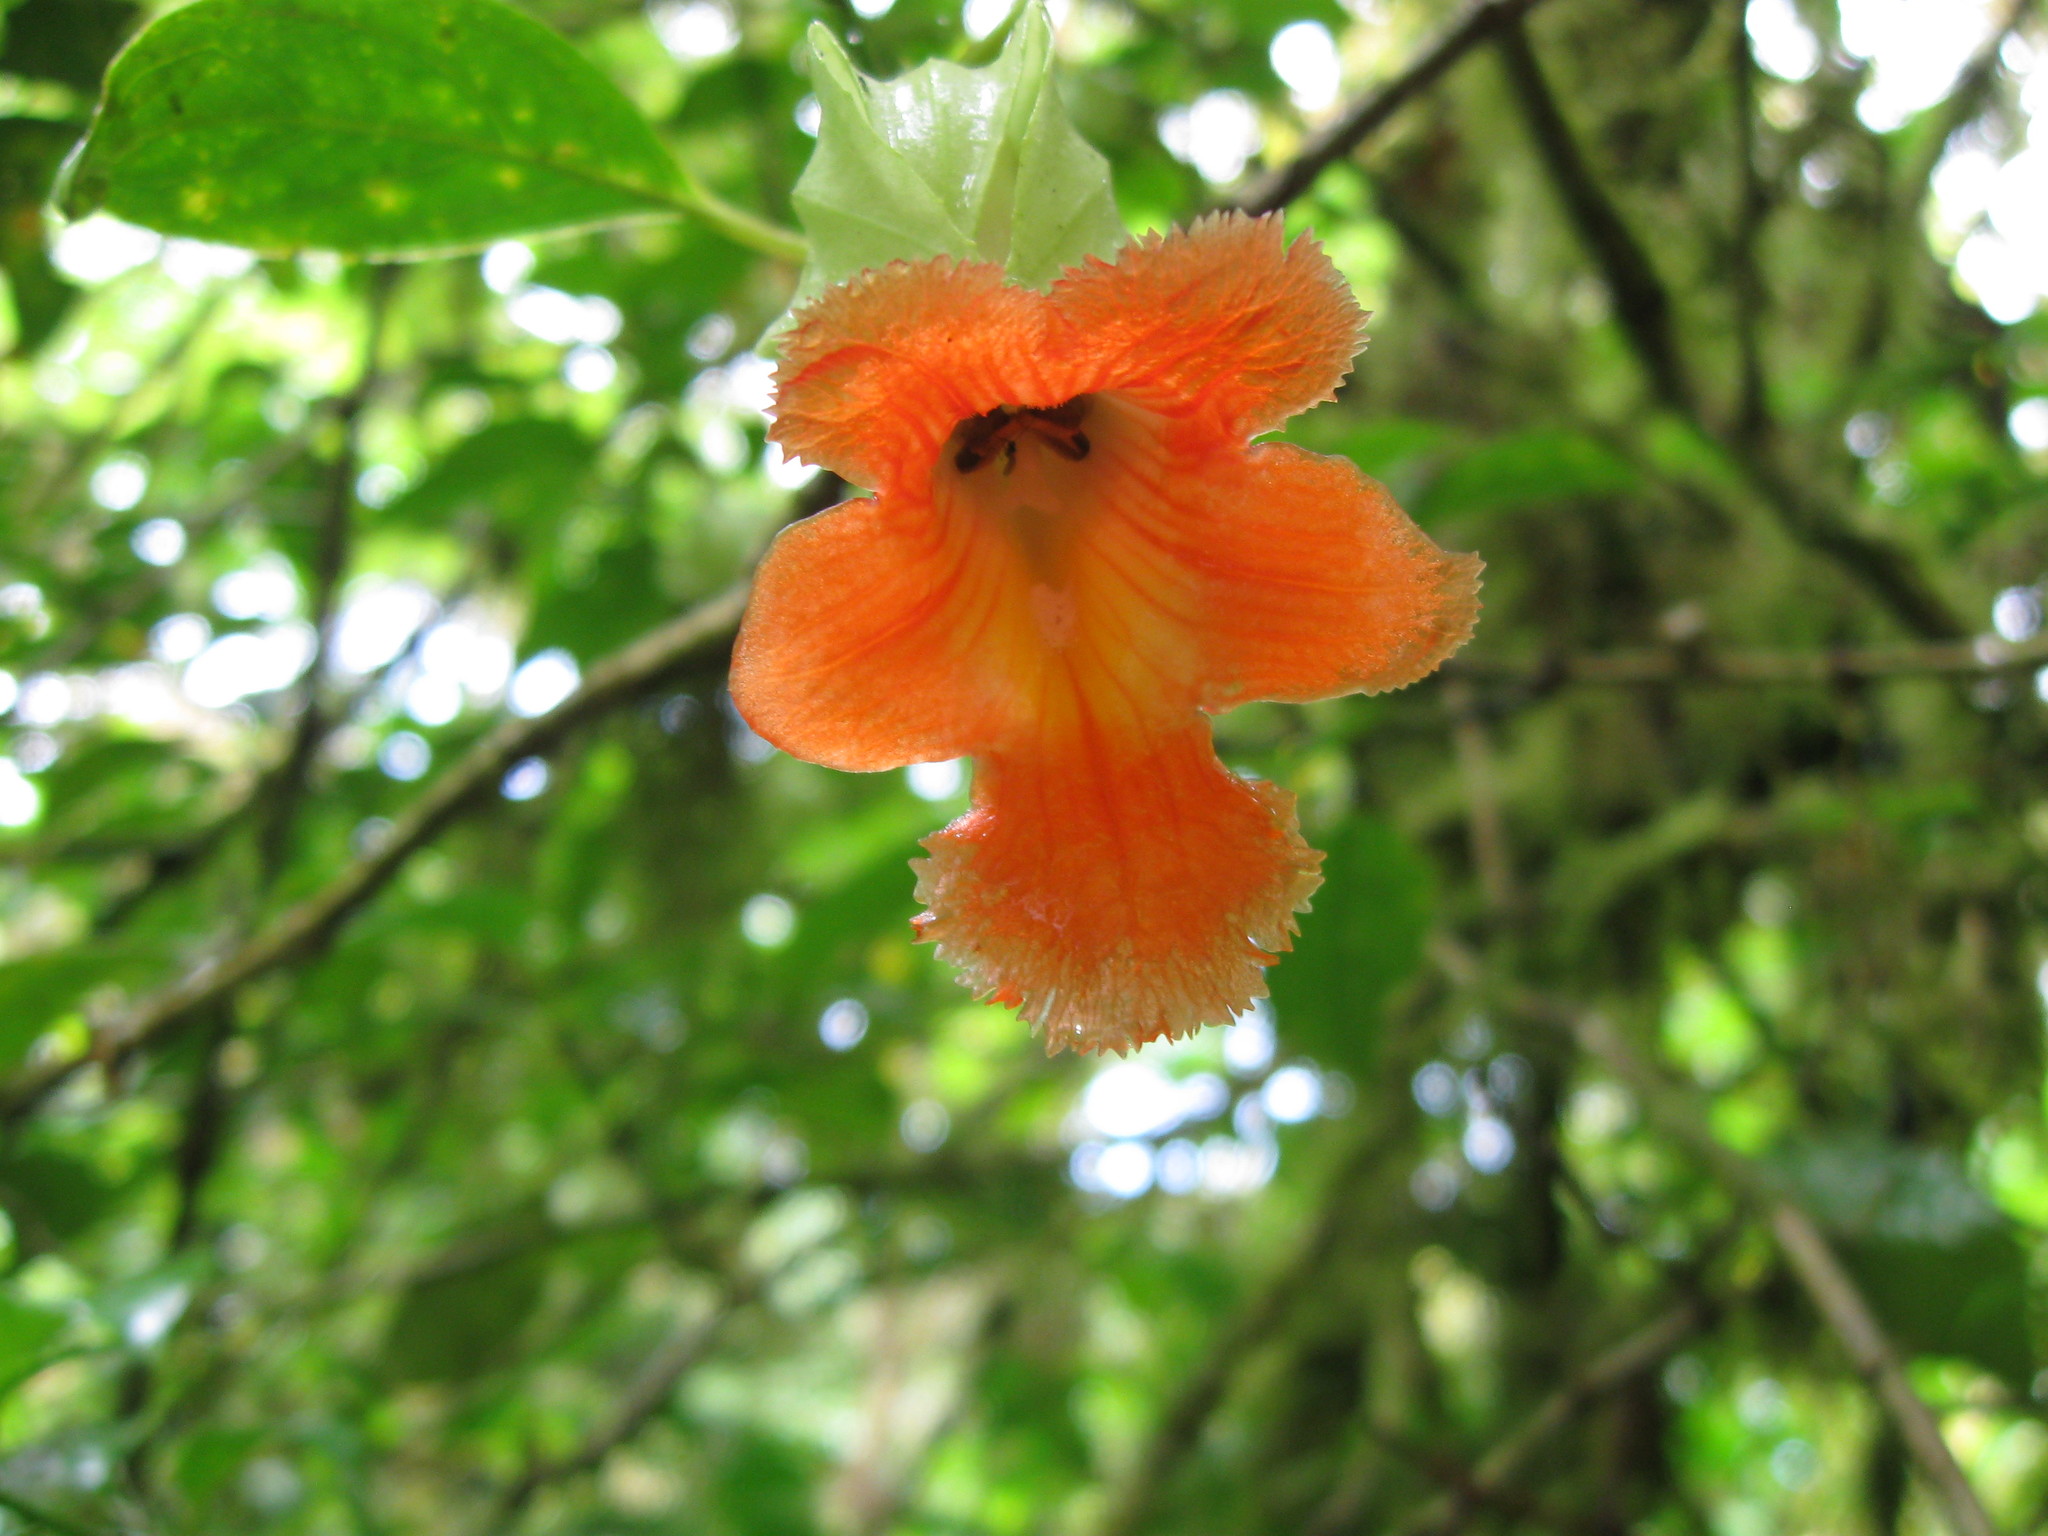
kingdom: Plantae
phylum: Tracheophyta
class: Magnoliopsida
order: Lamiales
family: Gesneriaceae
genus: Drymonia
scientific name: Drymonia rubra
